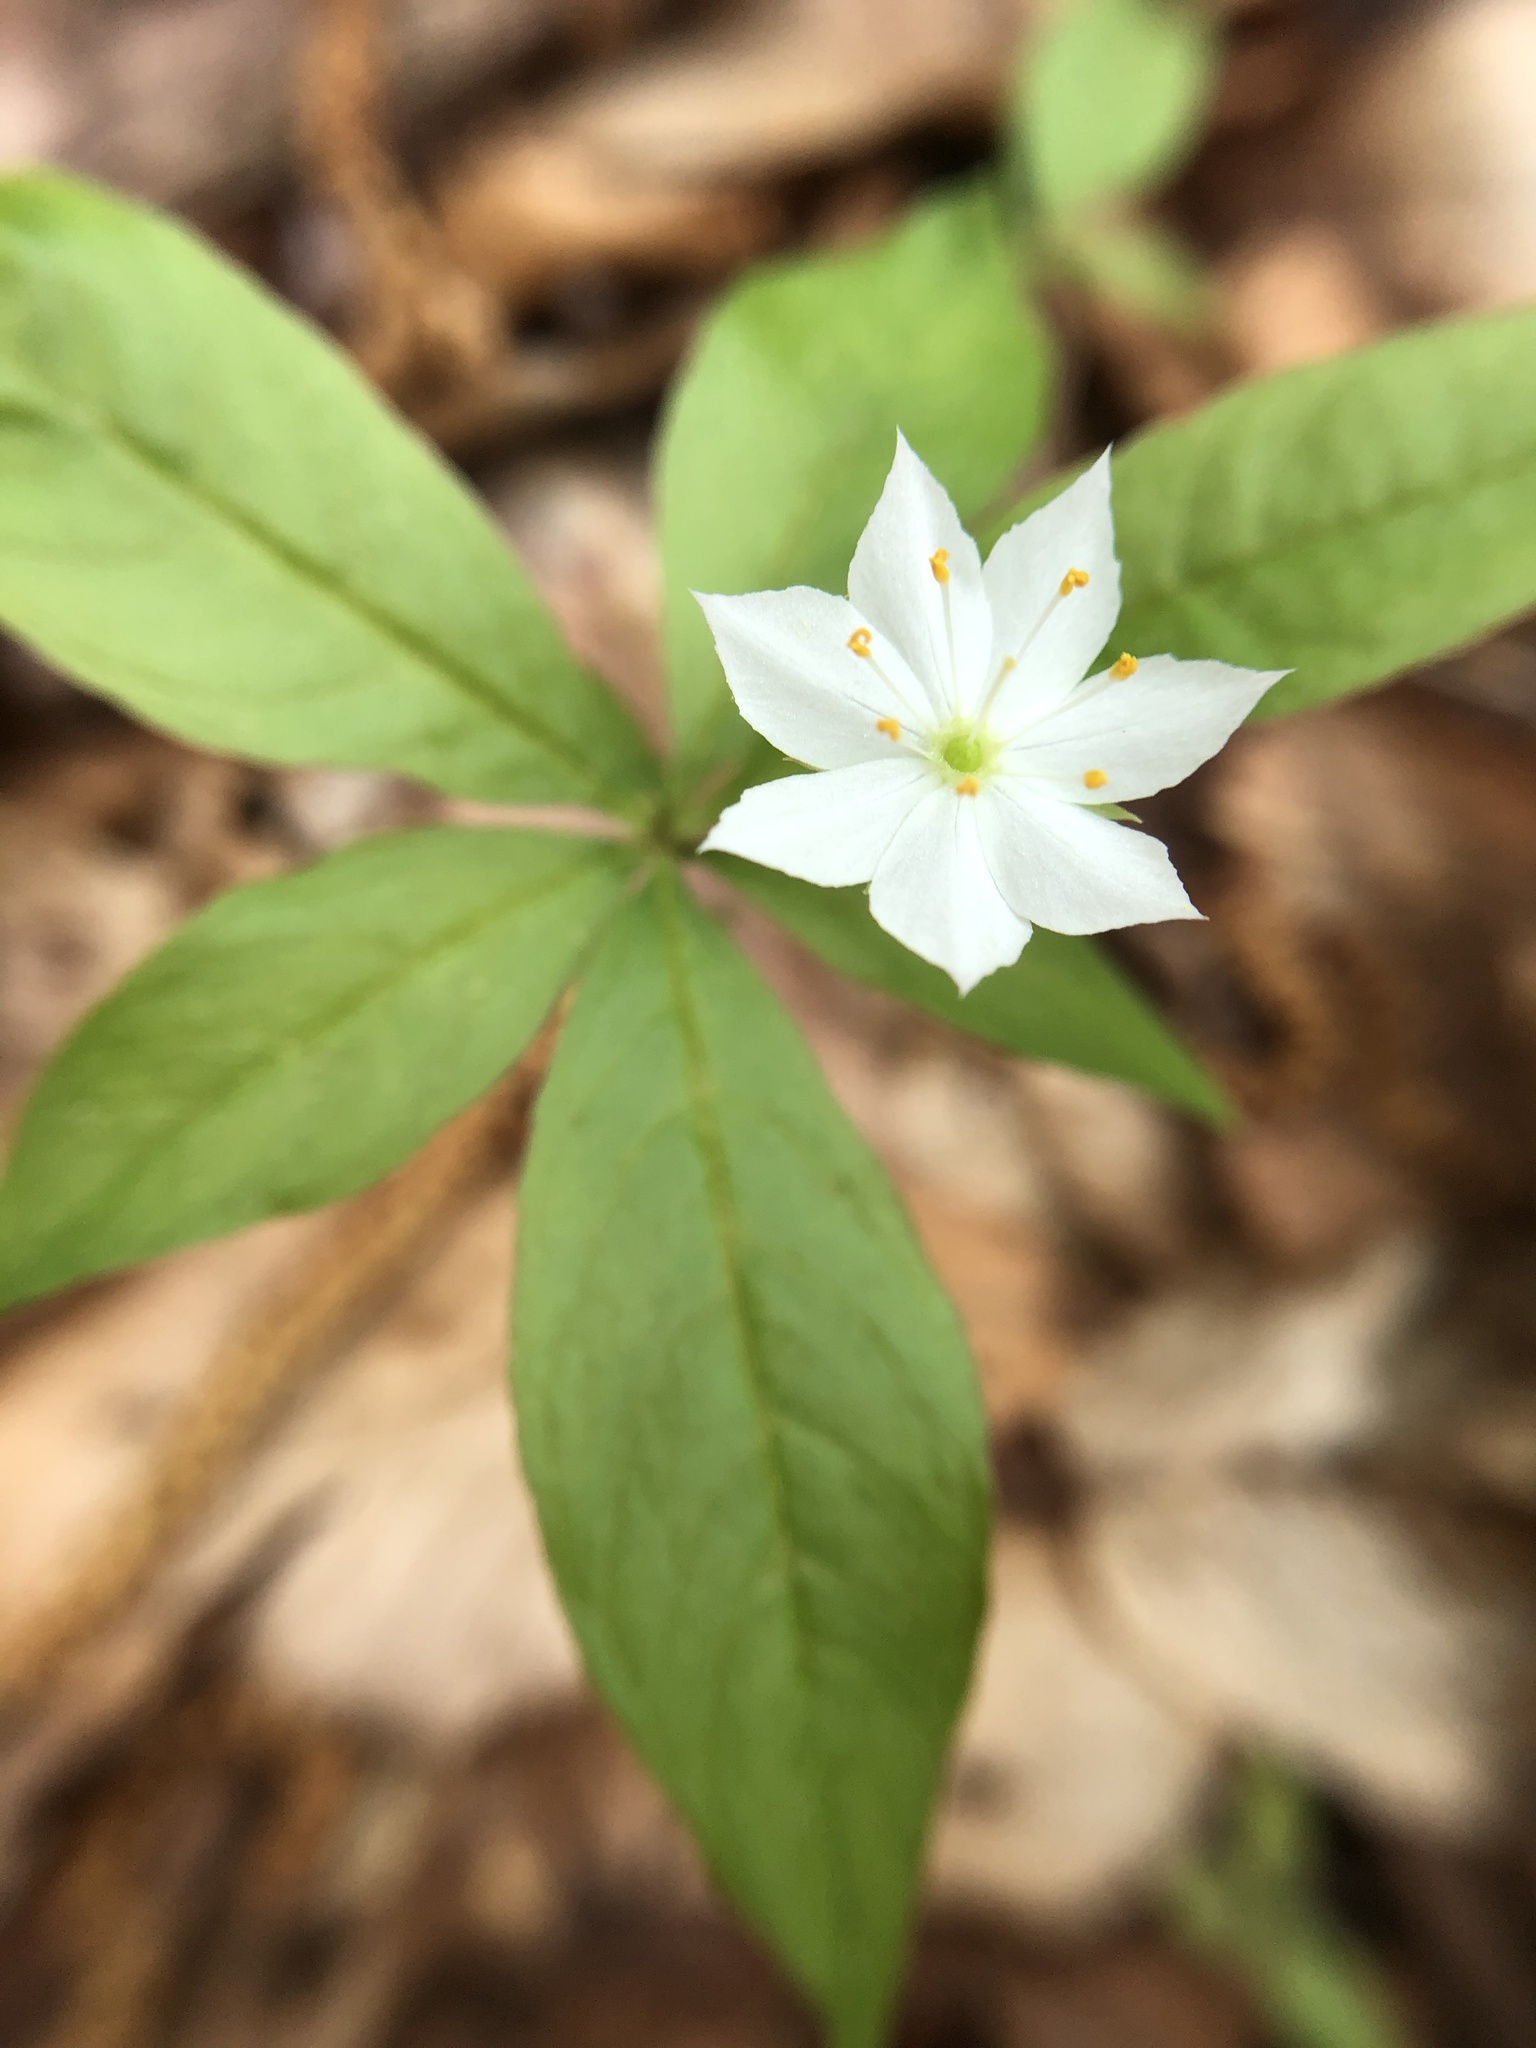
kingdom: Plantae
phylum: Tracheophyta
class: Magnoliopsida
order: Ericales
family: Primulaceae
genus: Lysimachia
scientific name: Lysimachia borealis
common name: American starflower
